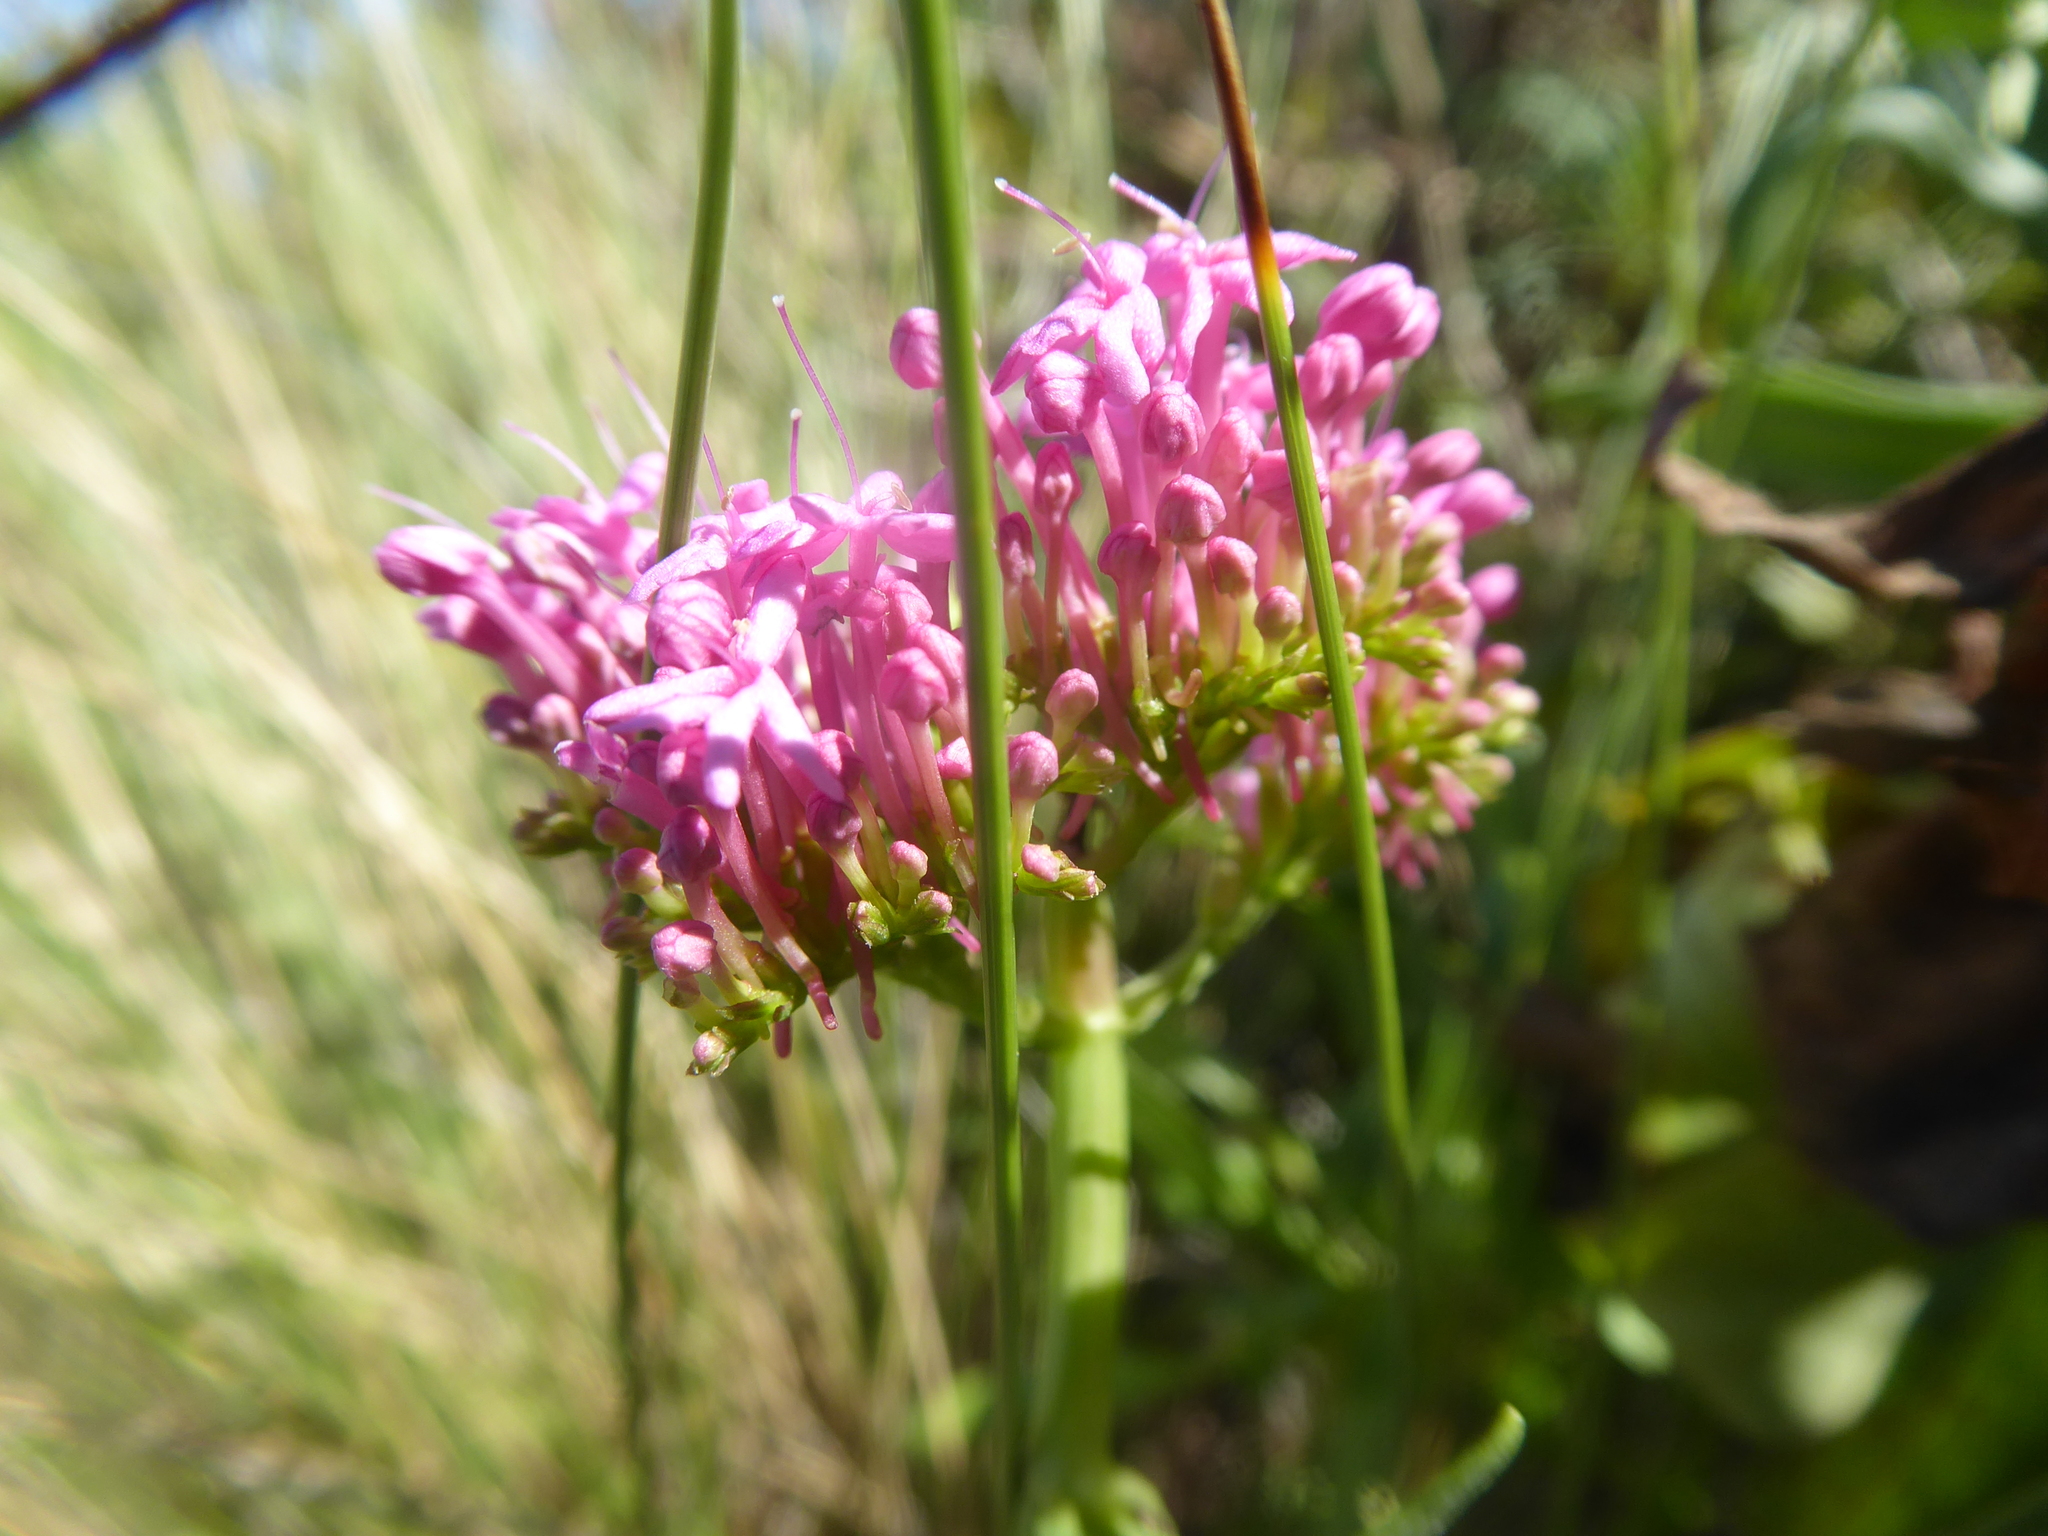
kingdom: Plantae
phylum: Tracheophyta
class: Magnoliopsida
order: Dipsacales
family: Caprifoliaceae
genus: Centranthus
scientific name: Centranthus ruber
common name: Red valerian
